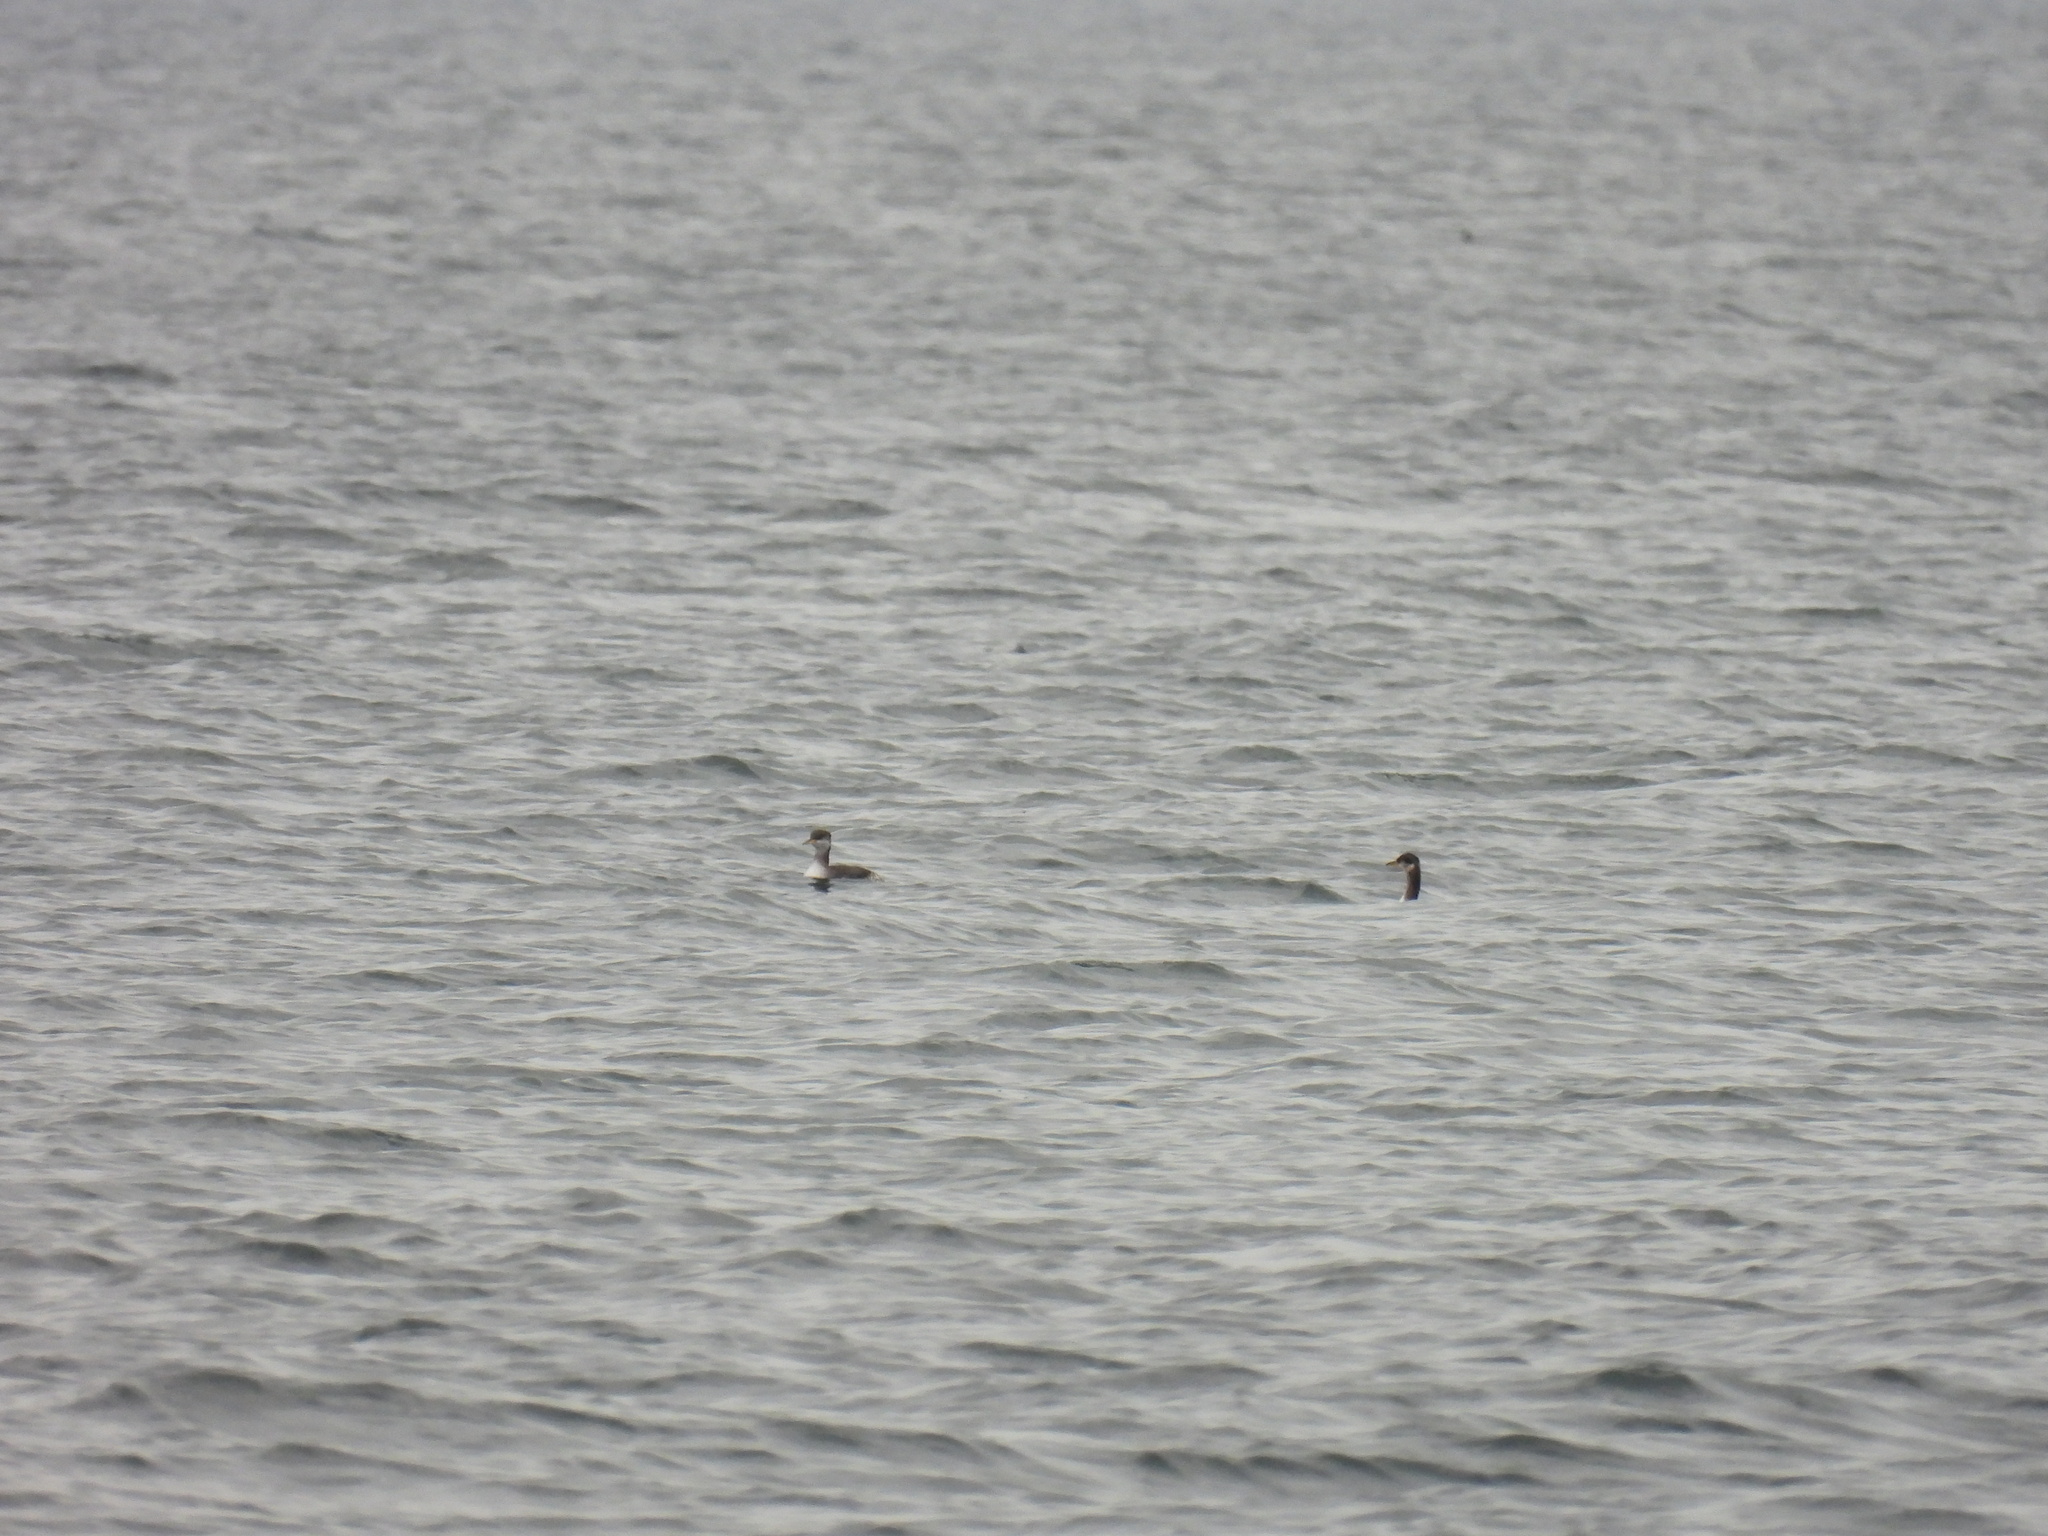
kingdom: Animalia
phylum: Chordata
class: Aves
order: Podicipediformes
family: Podicipedidae
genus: Podiceps
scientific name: Podiceps grisegena
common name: Red-necked grebe
